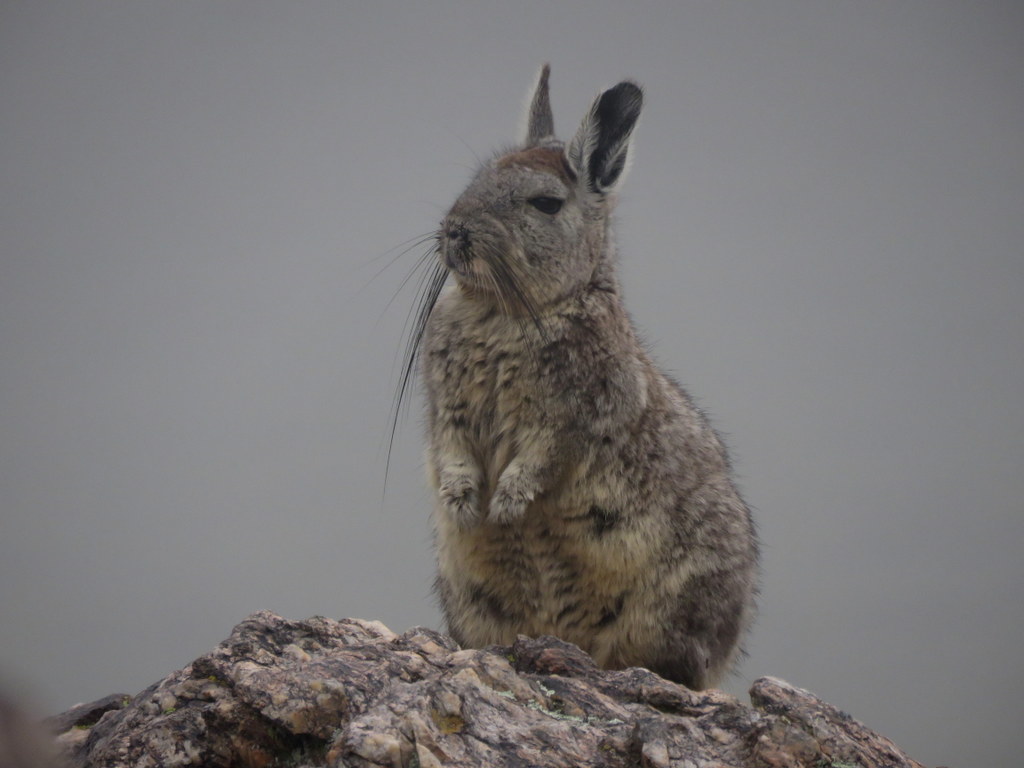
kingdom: Animalia
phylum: Chordata
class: Mammalia
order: Rodentia
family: Chinchillidae
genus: Lagidium
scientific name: Lagidium viscacia
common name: Southern viscacha
